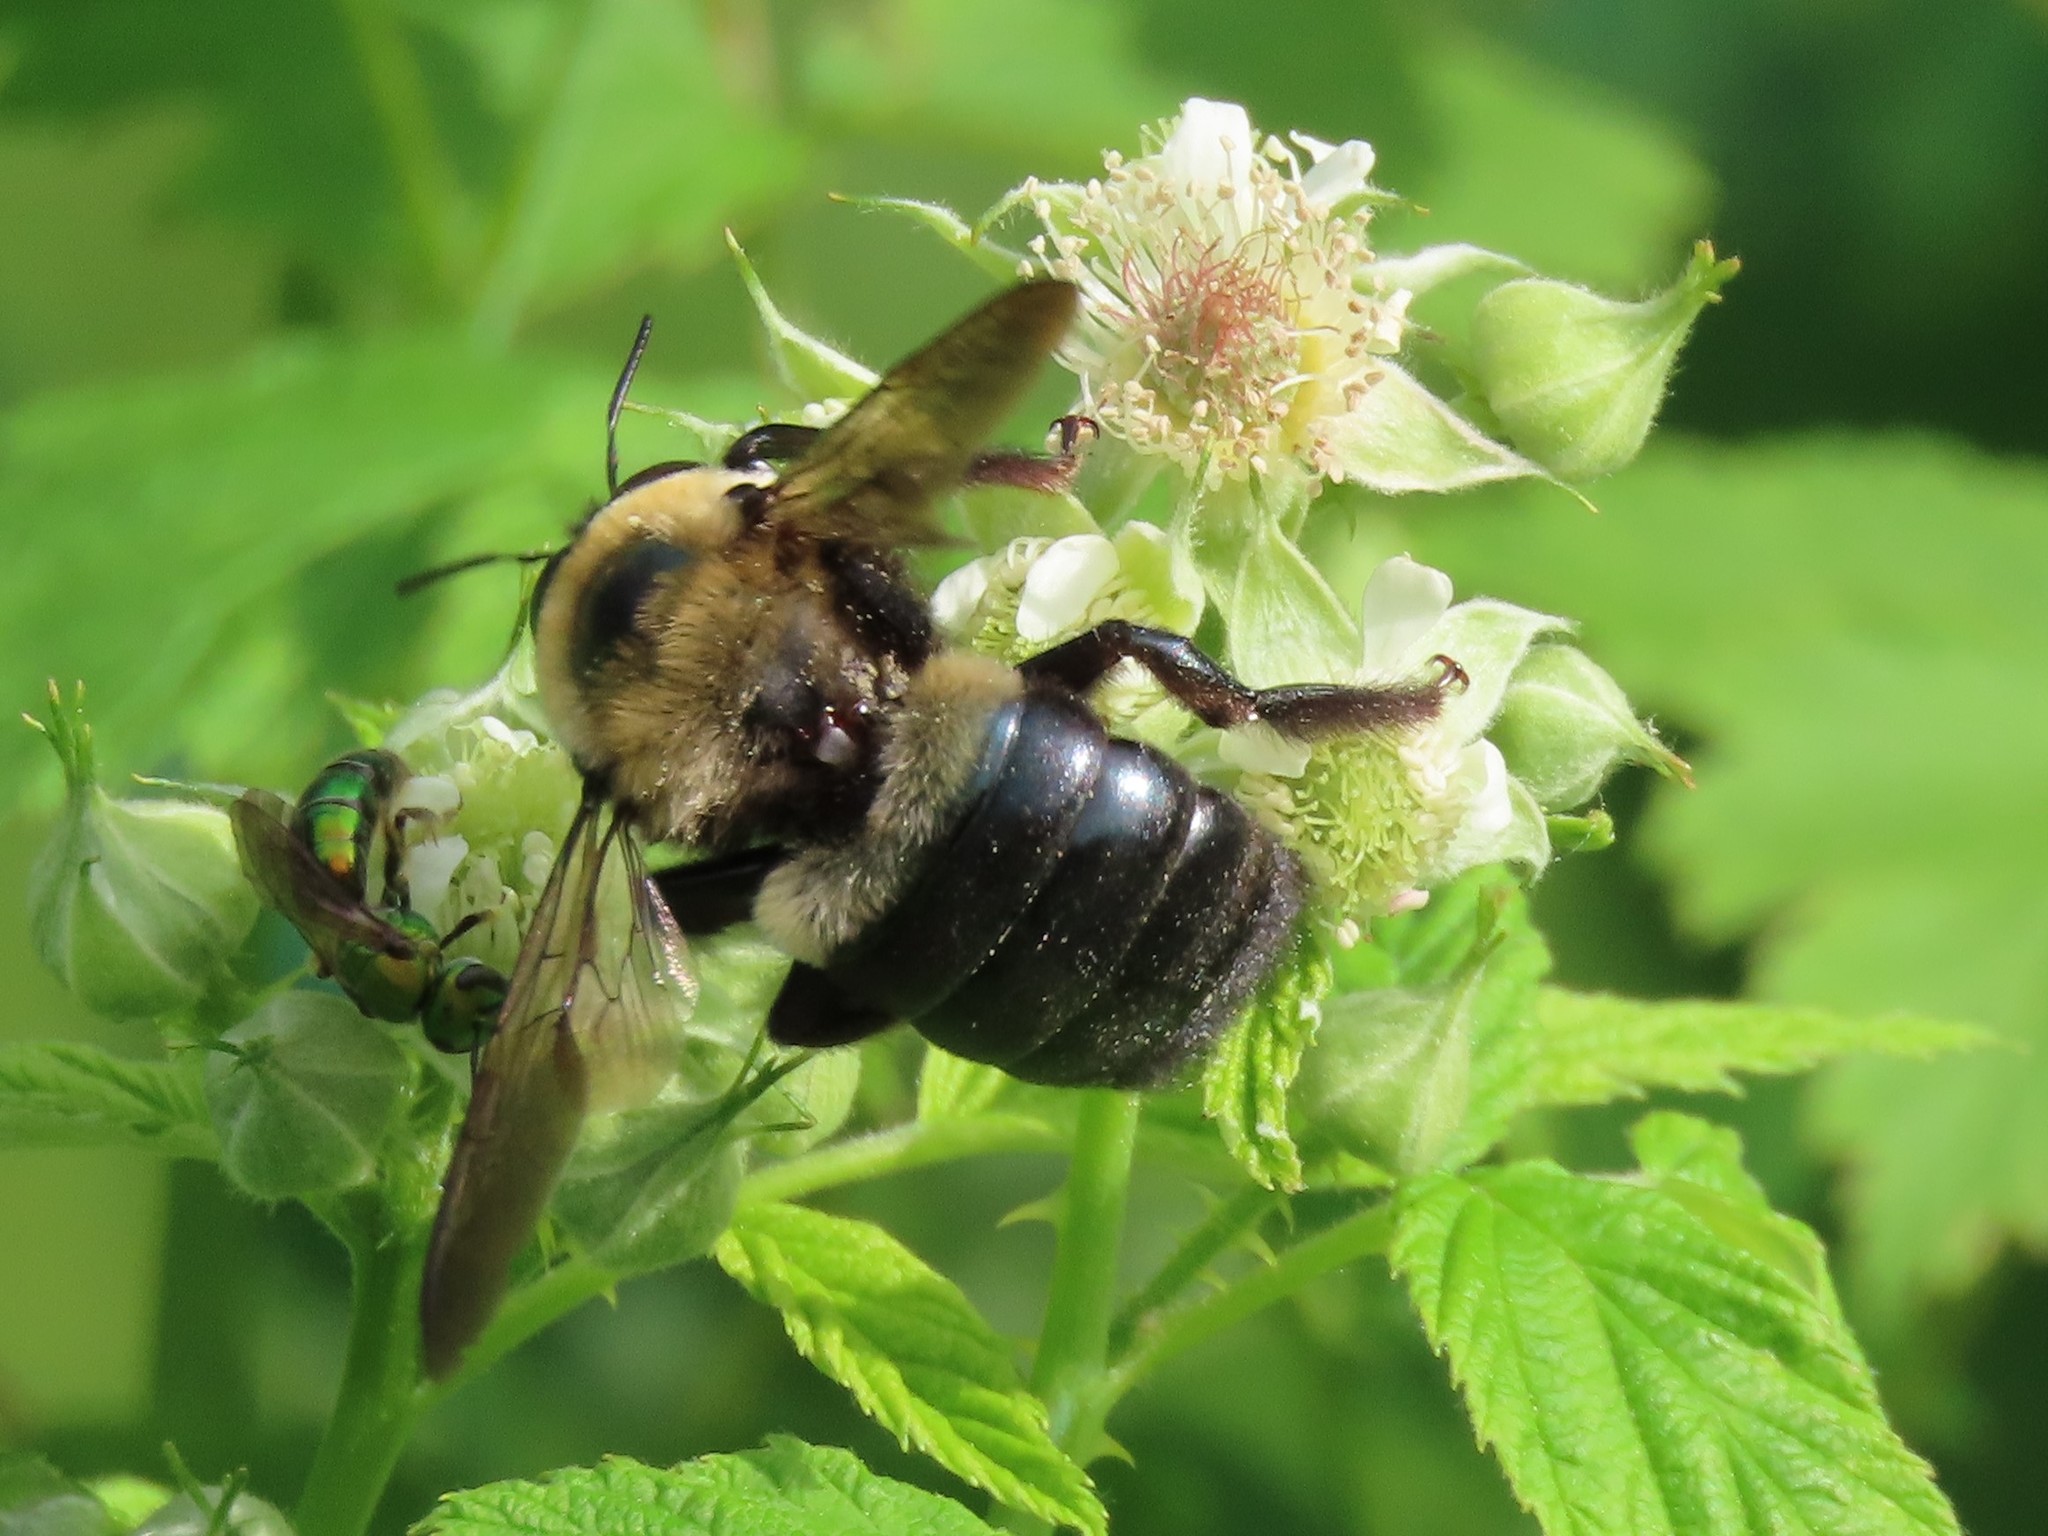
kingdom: Animalia
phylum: Arthropoda
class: Insecta
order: Hymenoptera
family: Apidae
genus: Xylocopa
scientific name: Xylocopa virginica
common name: Carpenter bee
